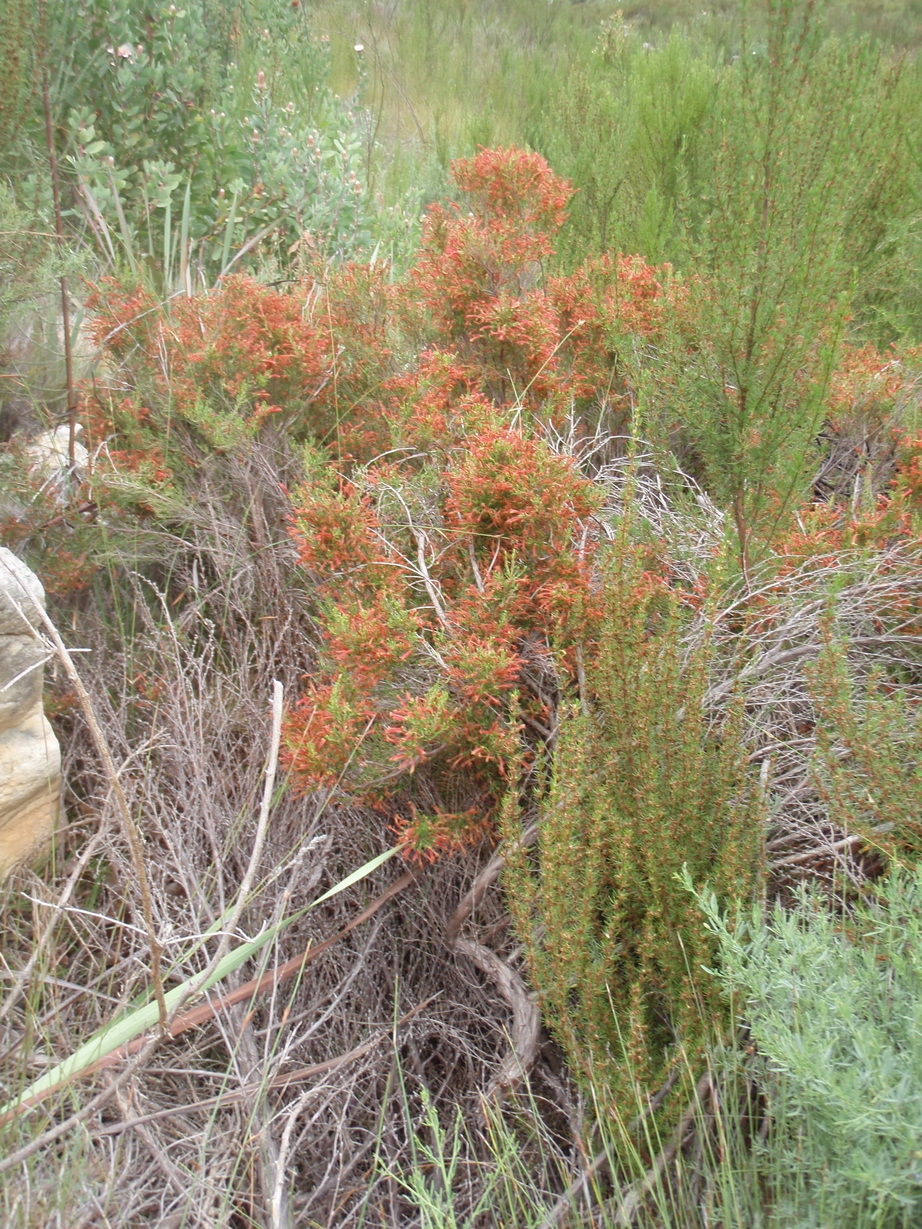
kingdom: Plantae
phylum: Tracheophyta
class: Magnoliopsida
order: Ericales
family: Ericaceae
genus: Erica
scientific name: Erica curviflora
